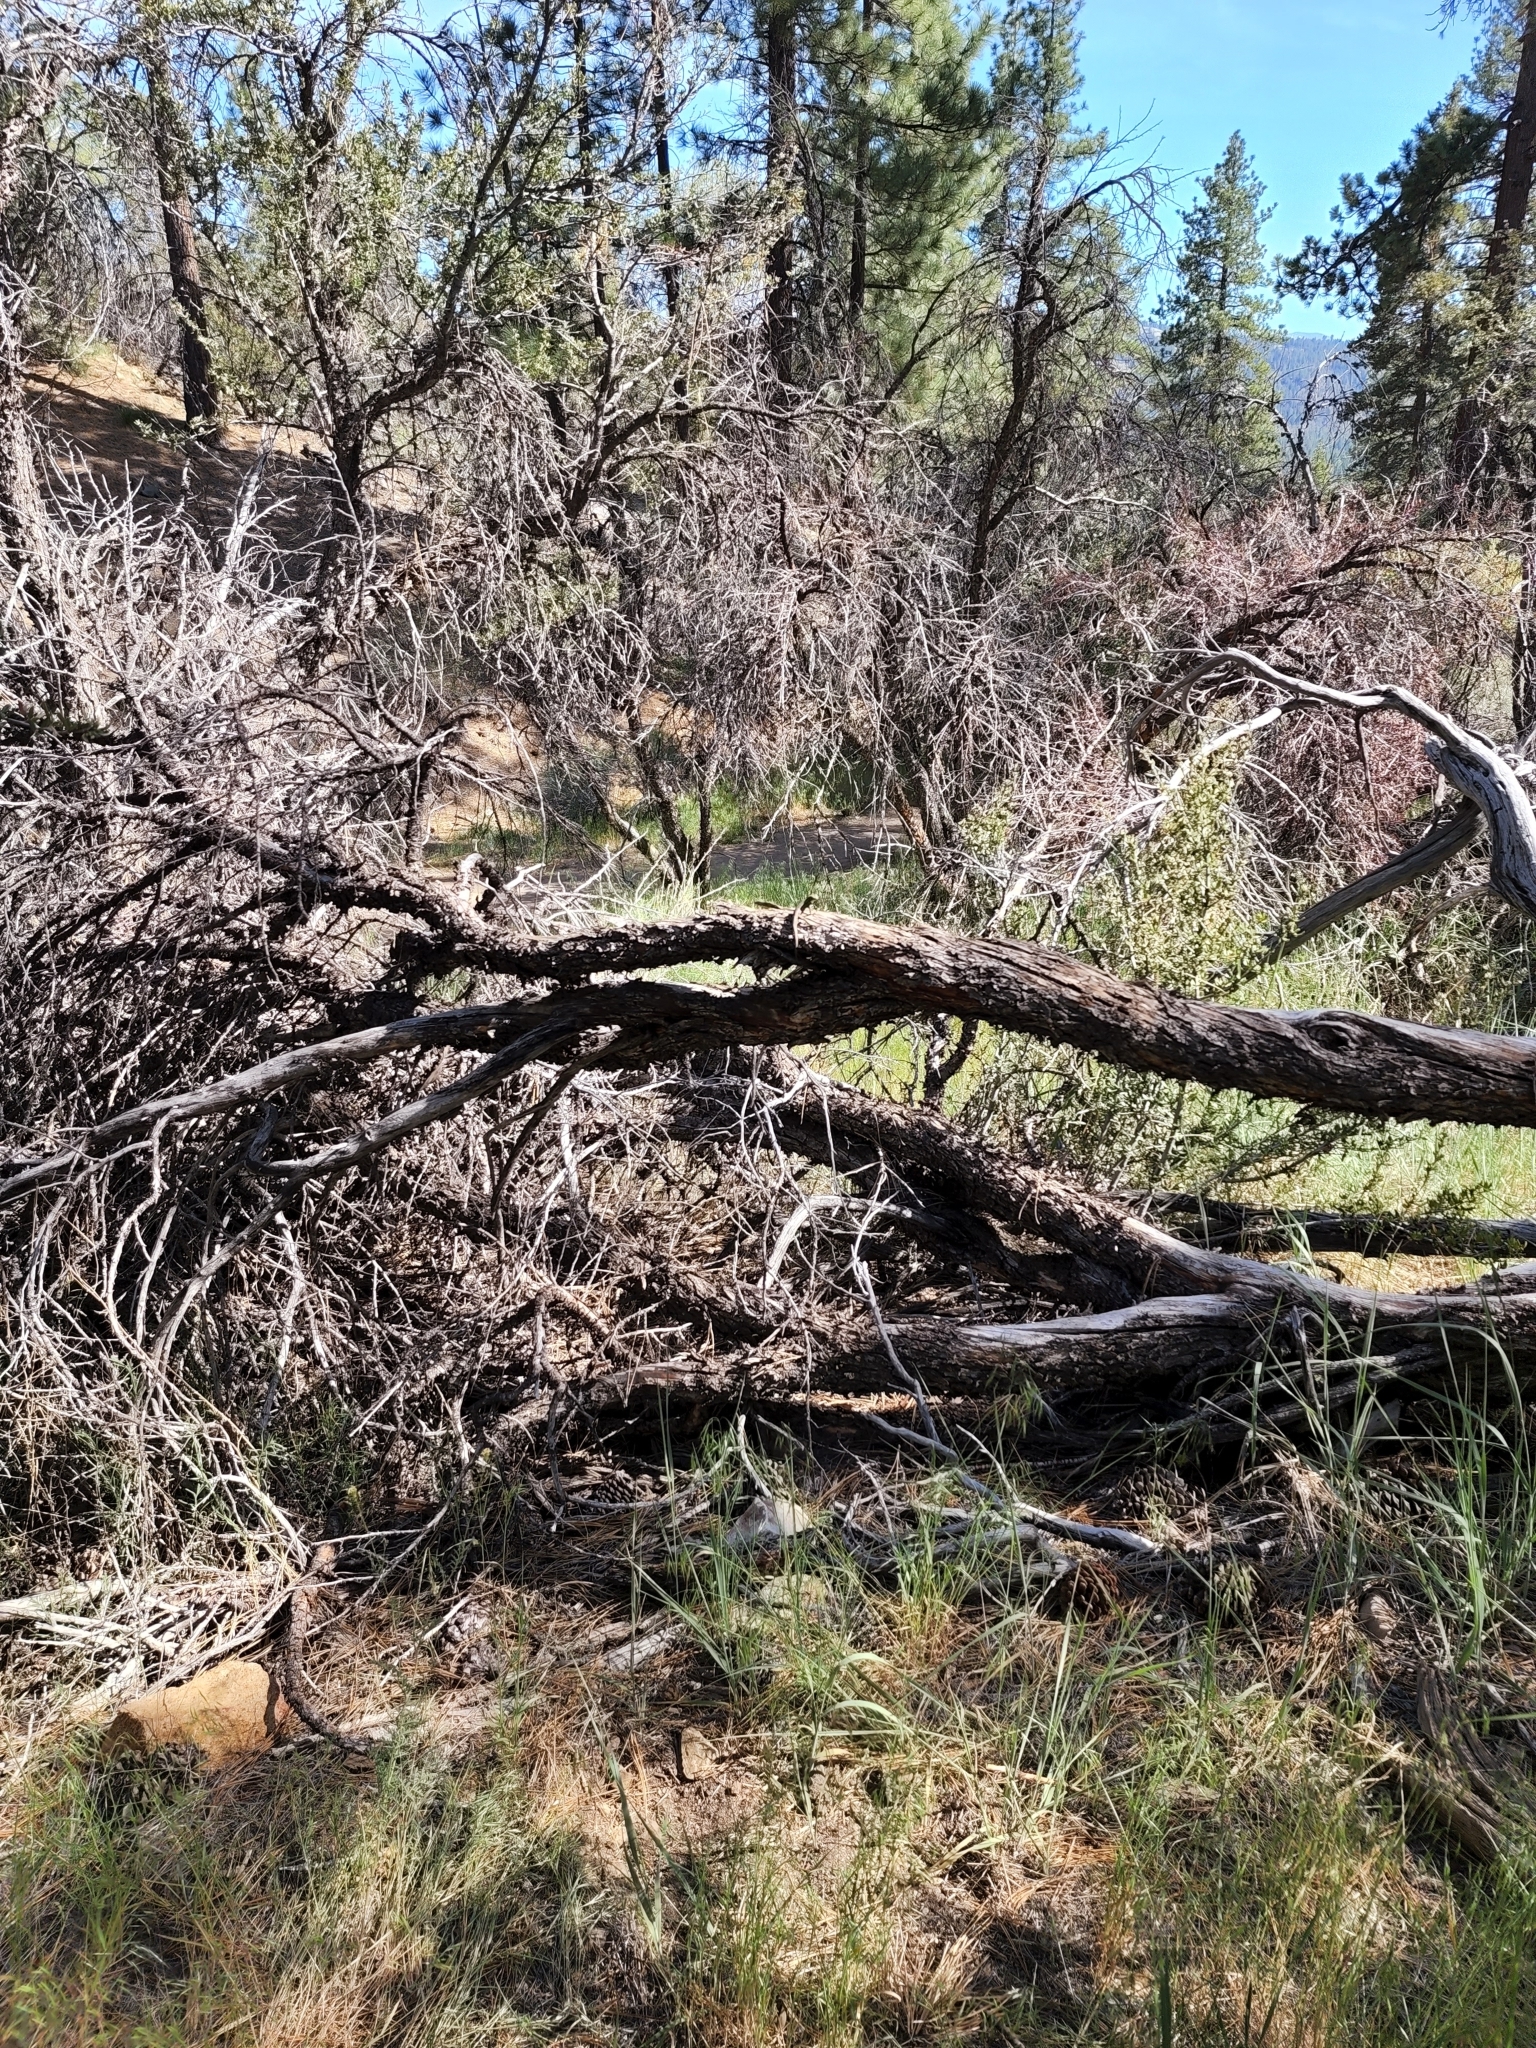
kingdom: Animalia
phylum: Chordata
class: Squamata
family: Phrynosomatidae
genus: Sceloporus
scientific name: Sceloporus graciosus
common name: Sagebrush lizard
